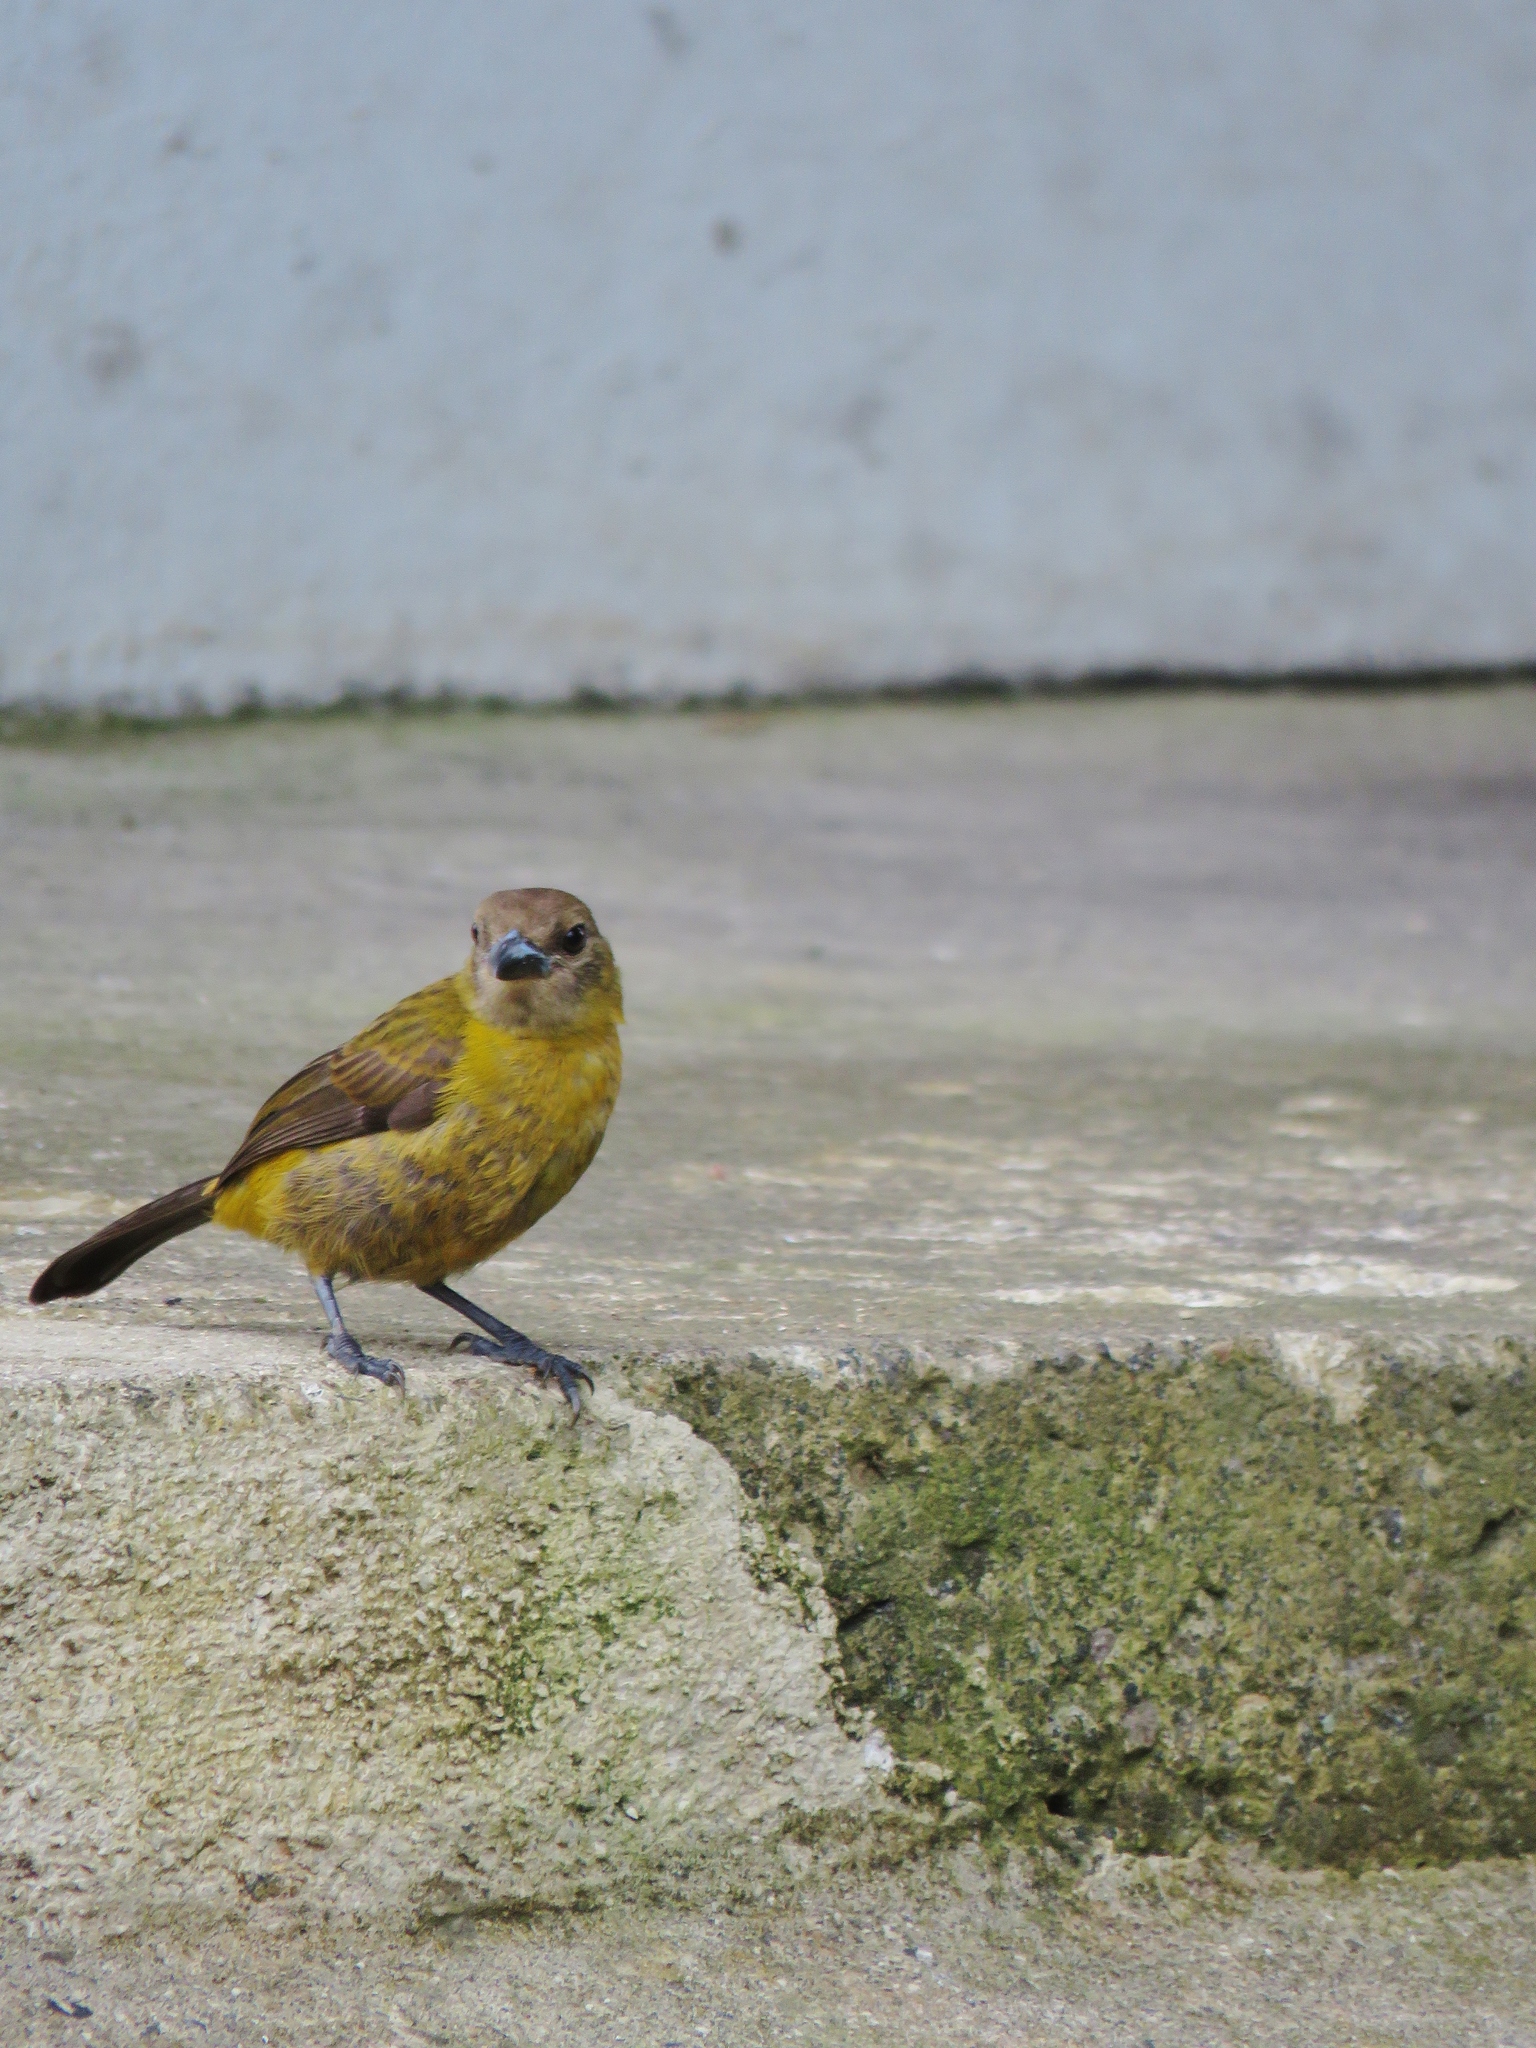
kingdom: Animalia
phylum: Chordata
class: Aves
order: Passeriformes
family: Thraupidae
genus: Ramphocelus
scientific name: Ramphocelus passerinii
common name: Passerini's tanager
